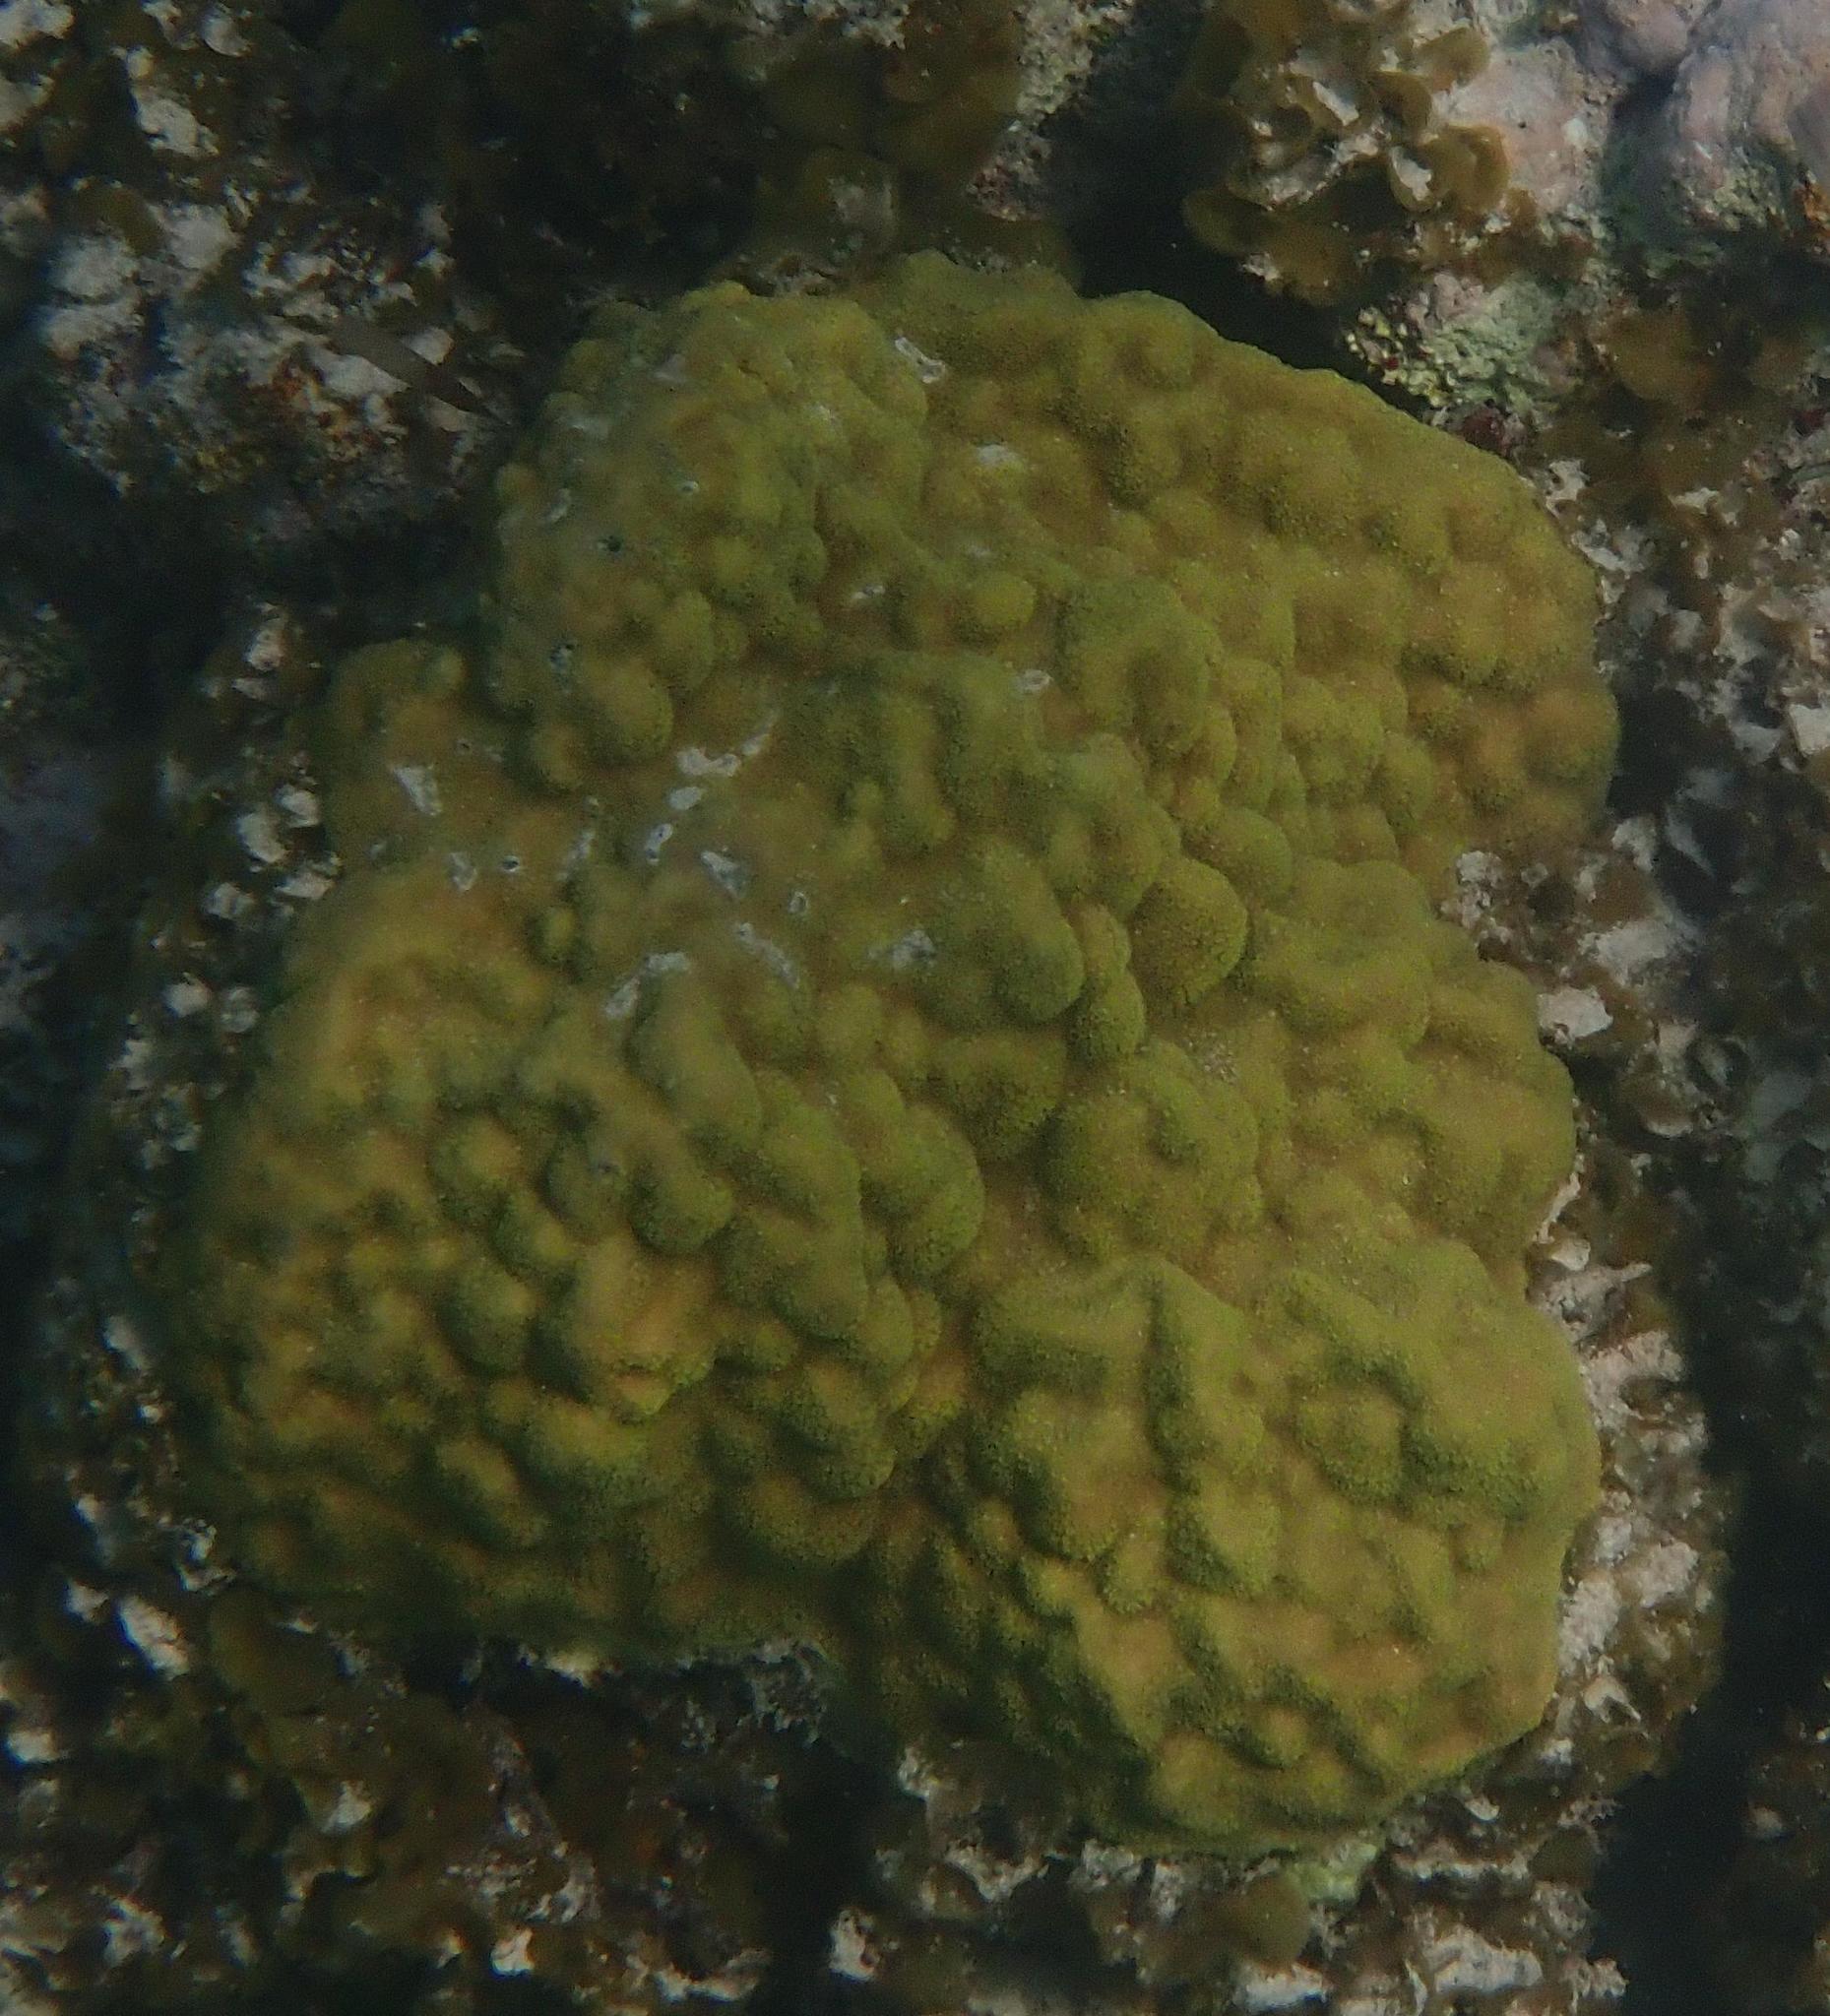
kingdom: Animalia
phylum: Cnidaria
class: Anthozoa
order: Scleractinia
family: Poritidae
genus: Porites
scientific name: Porites astreoides
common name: Mustard hill coral
